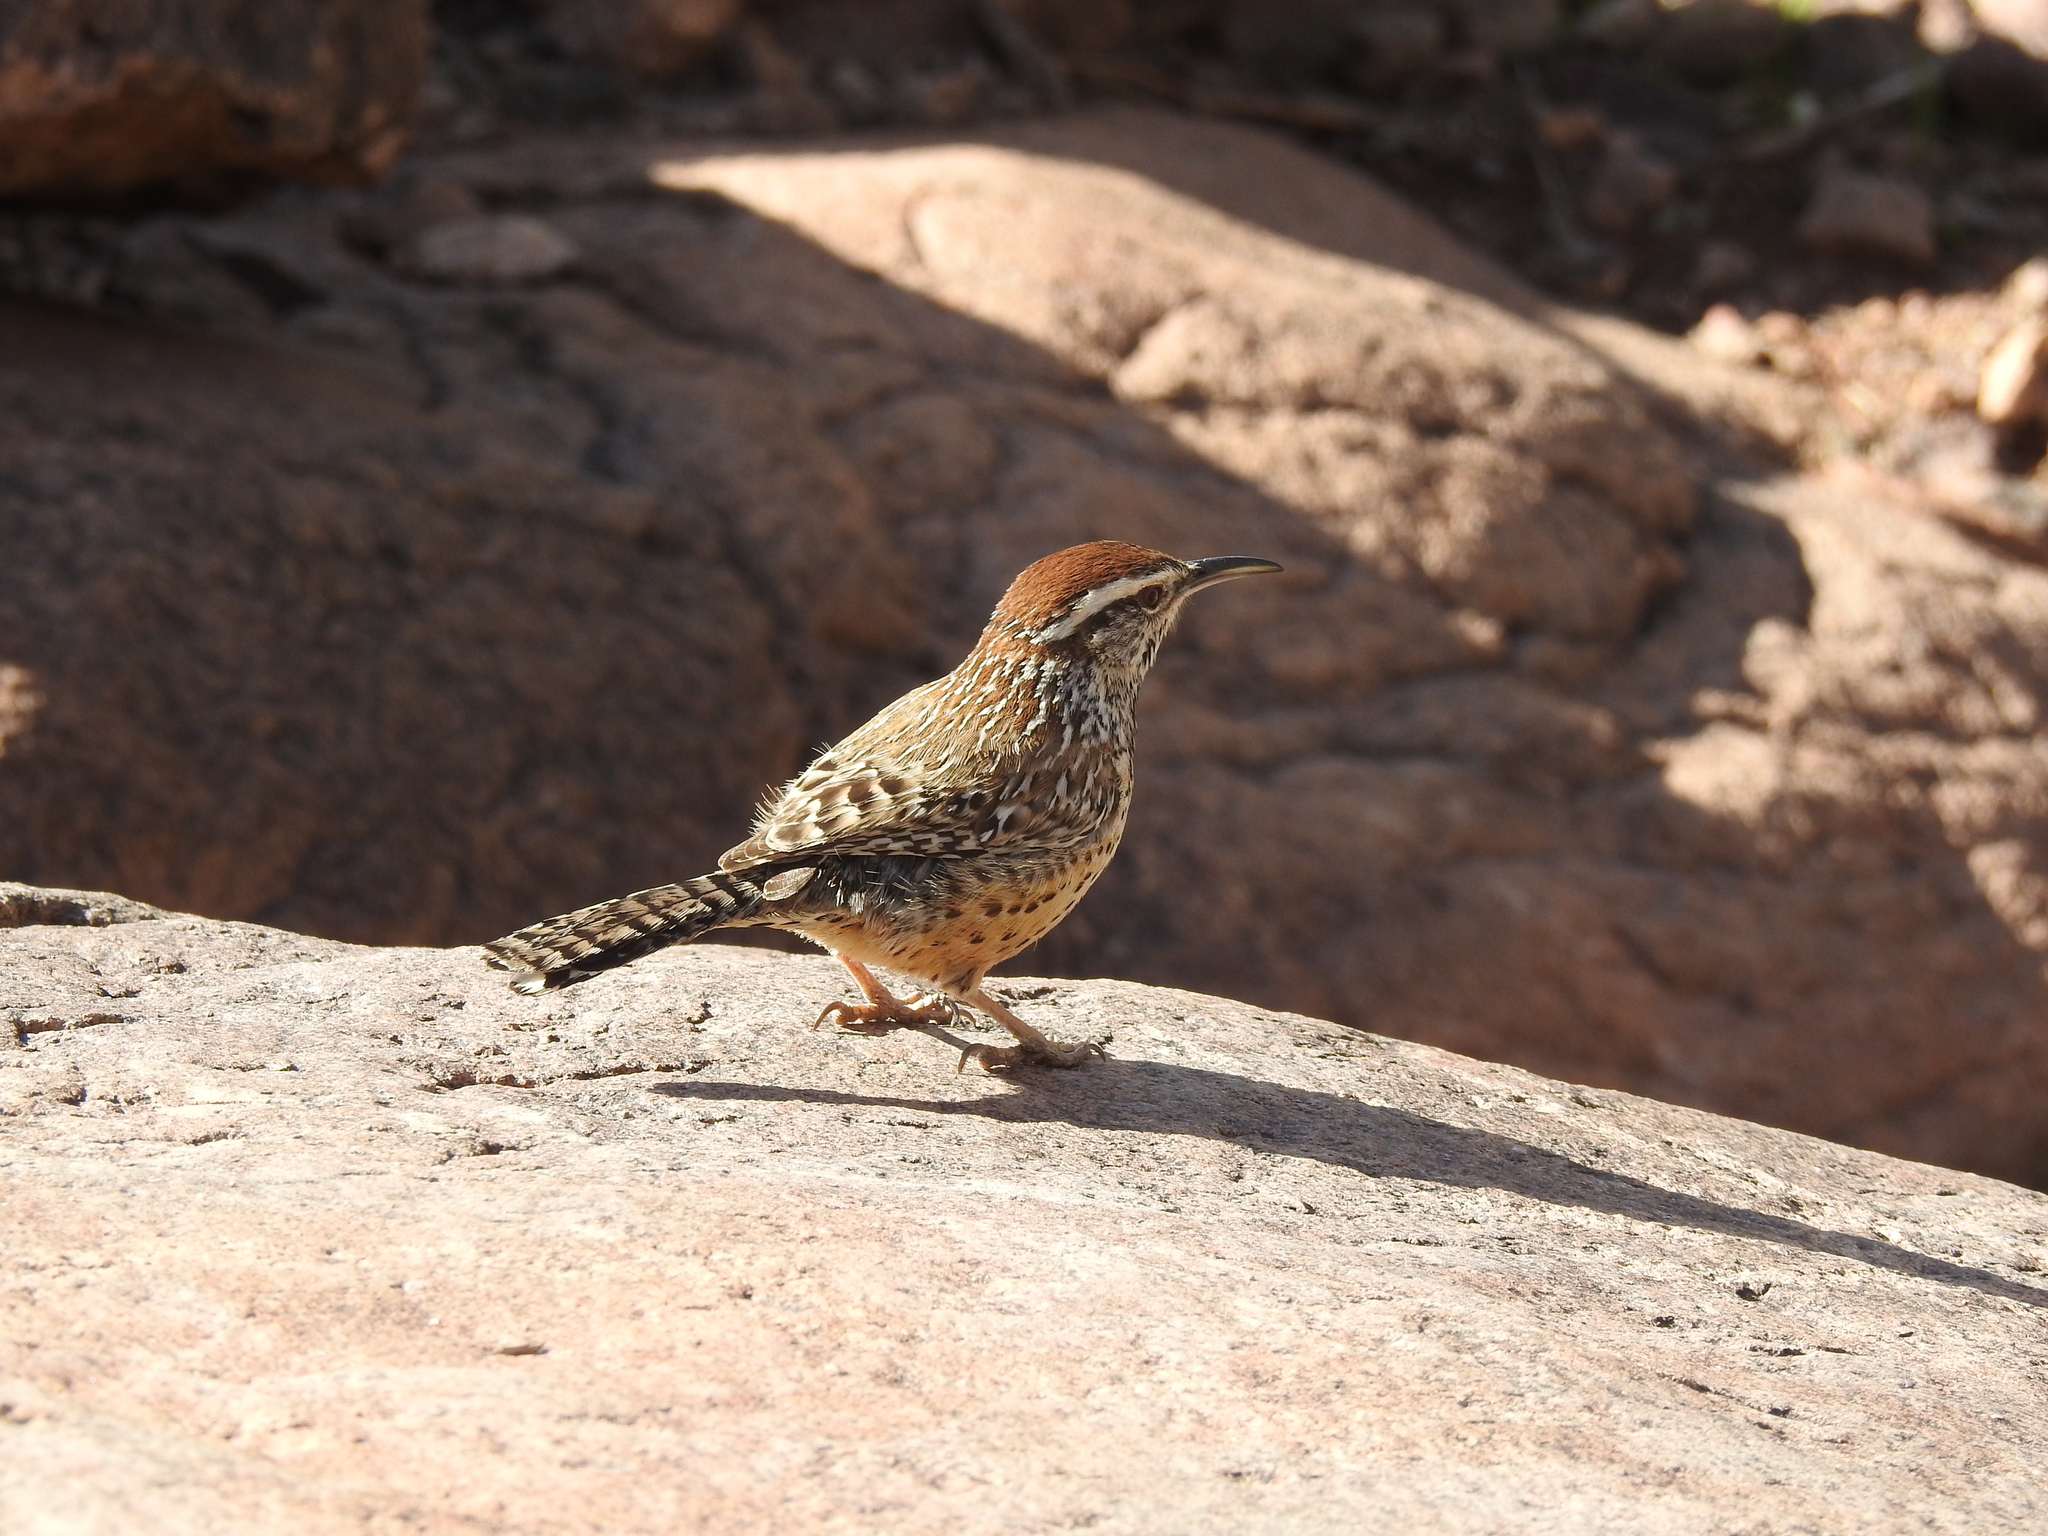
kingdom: Animalia
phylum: Chordata
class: Aves
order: Passeriformes
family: Troglodytidae
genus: Campylorhynchus
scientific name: Campylorhynchus brunneicapillus
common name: Cactus wren
